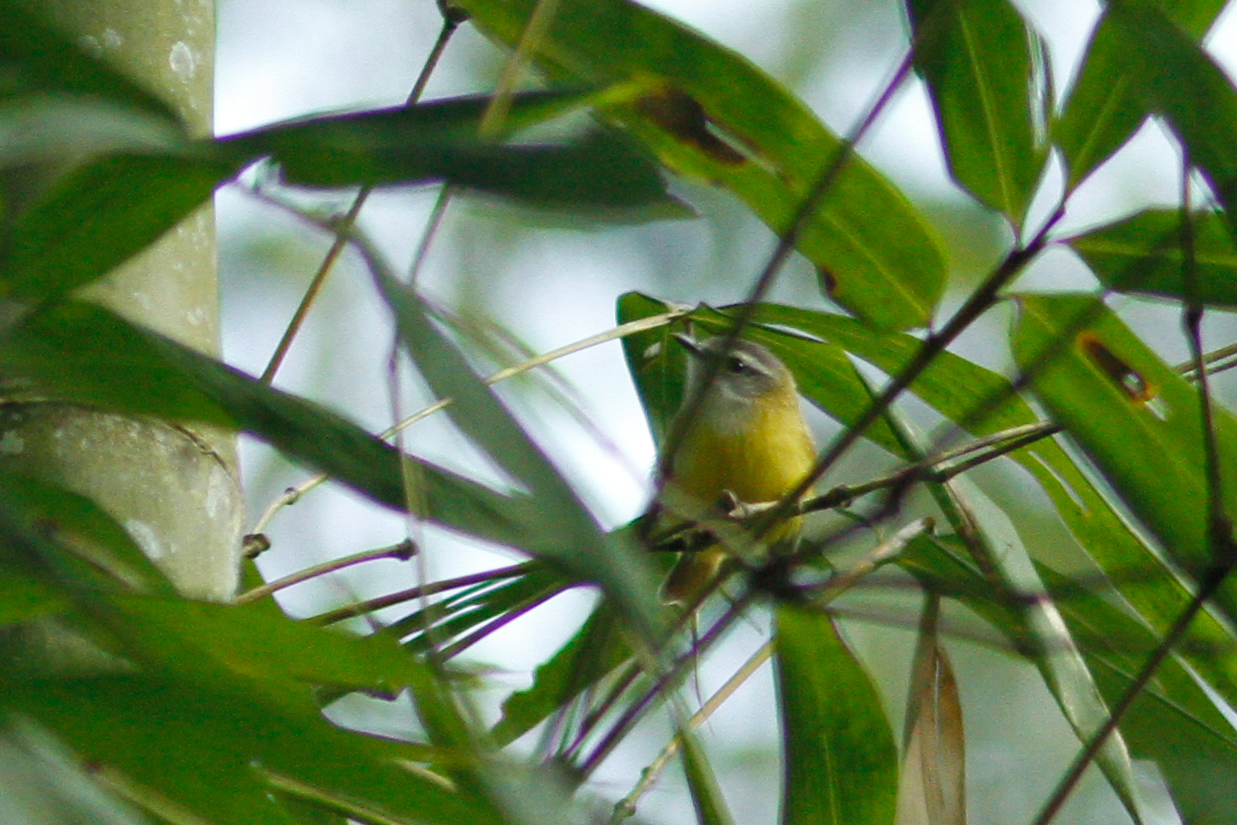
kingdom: Animalia
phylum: Chordata
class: Aves
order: Passeriformes
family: Cettiidae
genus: Abroscopus
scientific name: Abroscopus superciliaris
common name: Yellow-bellied warbler
